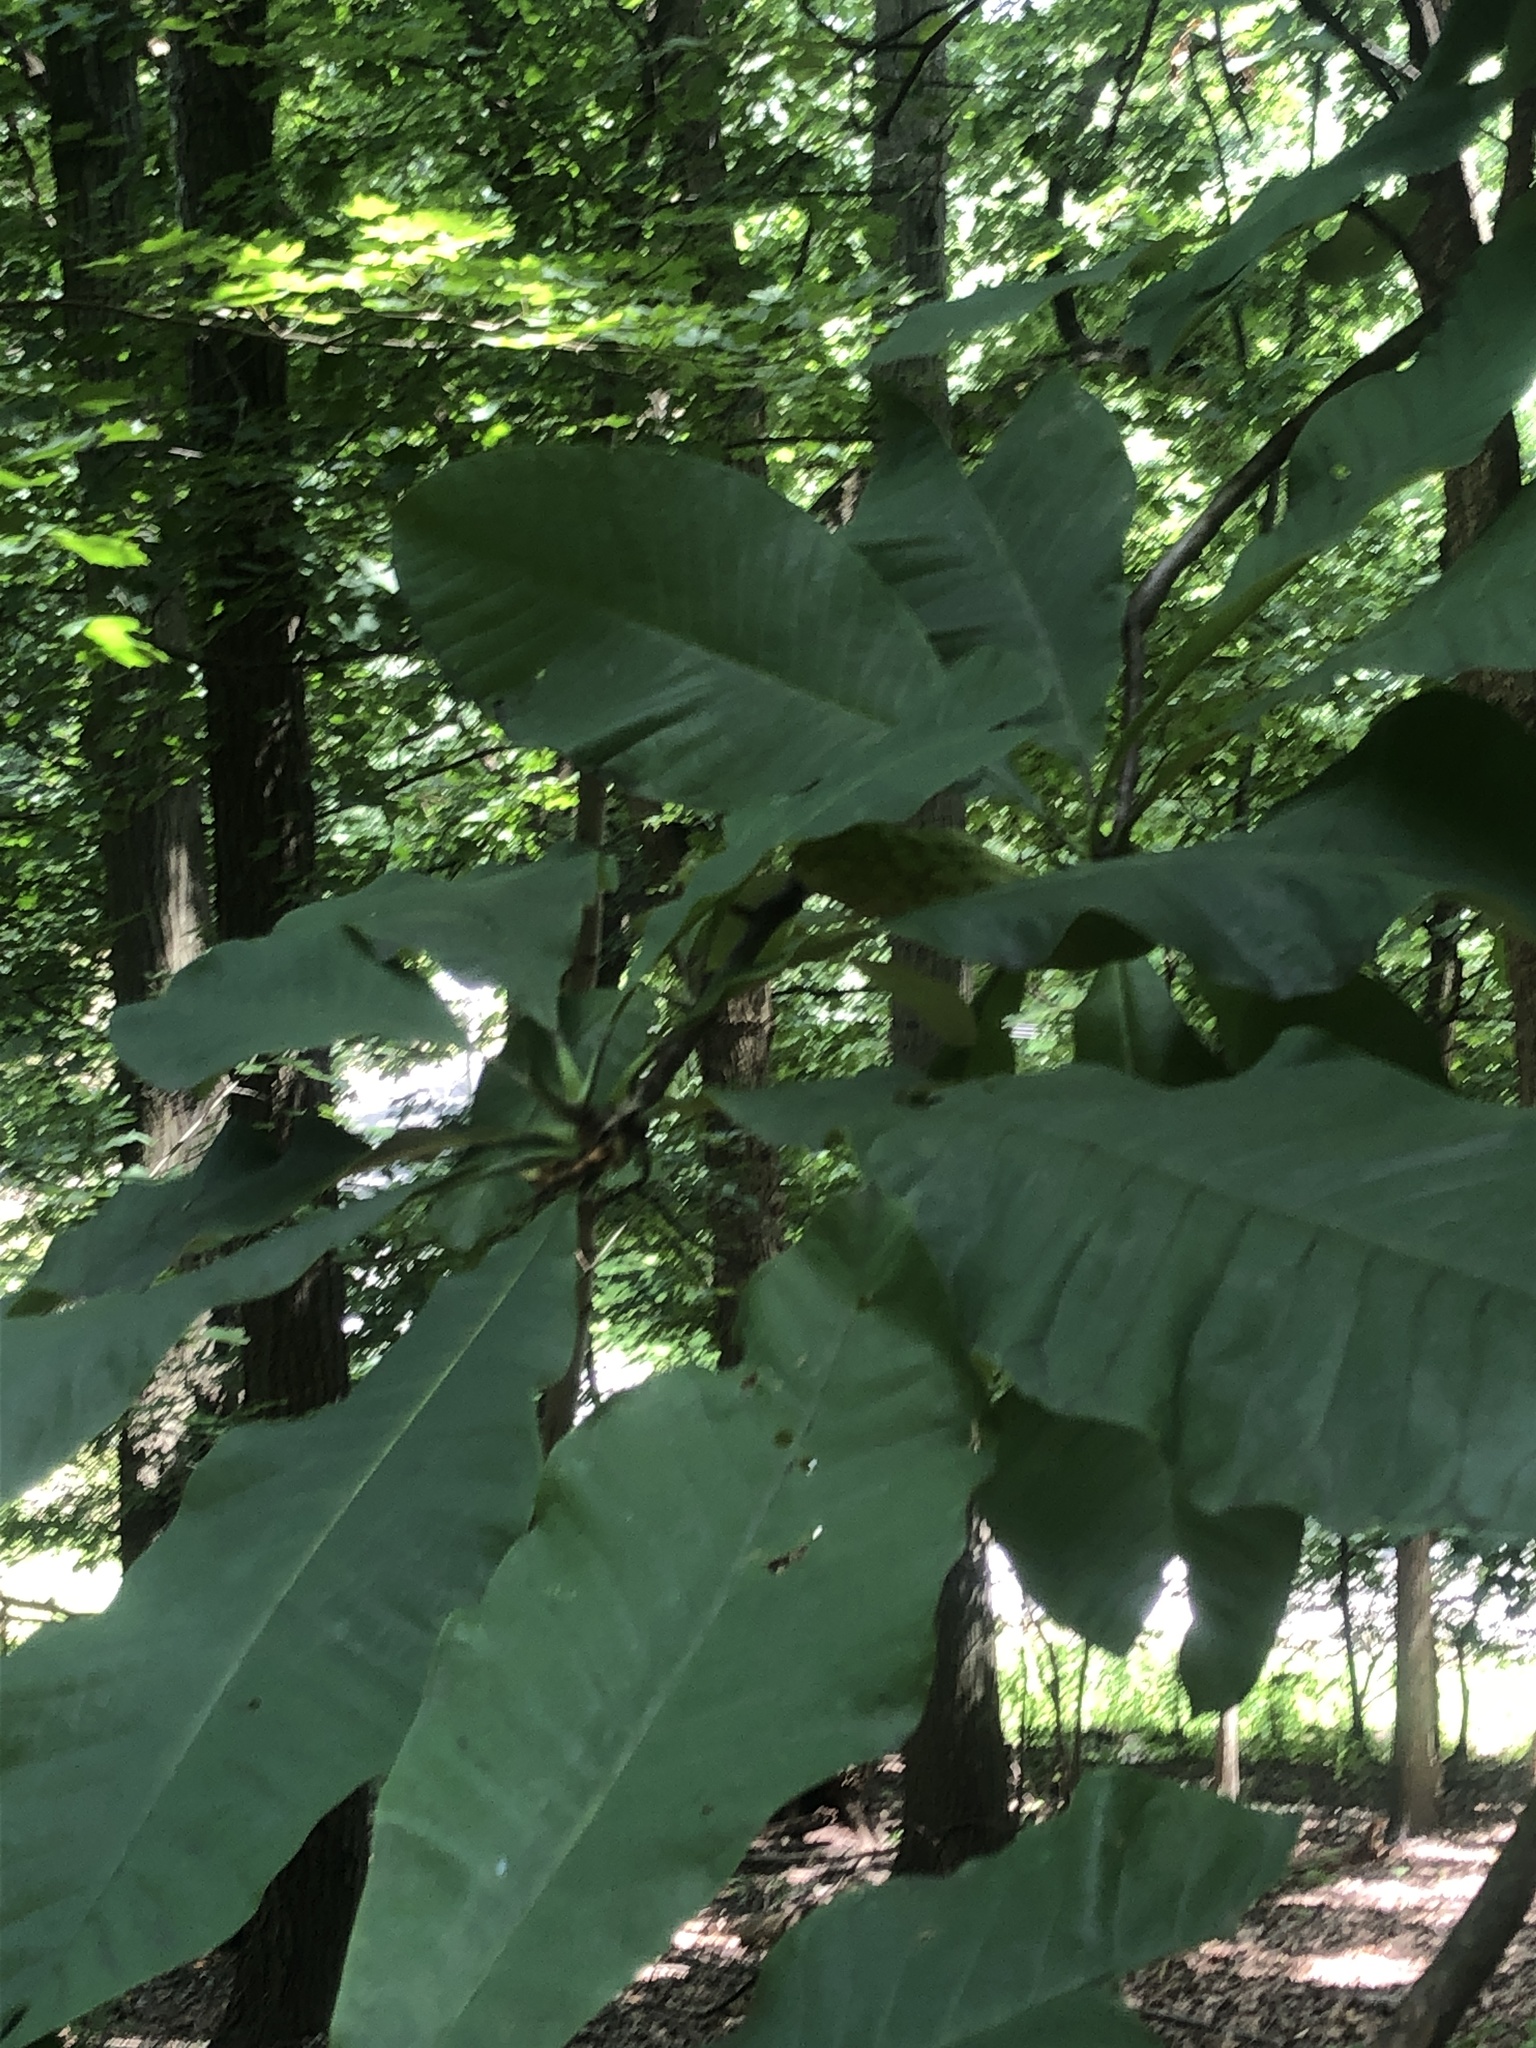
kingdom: Plantae
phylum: Tracheophyta
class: Magnoliopsida
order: Magnoliales
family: Magnoliaceae
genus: Magnolia
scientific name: Magnolia tripetala
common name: Umbrella magnolia
